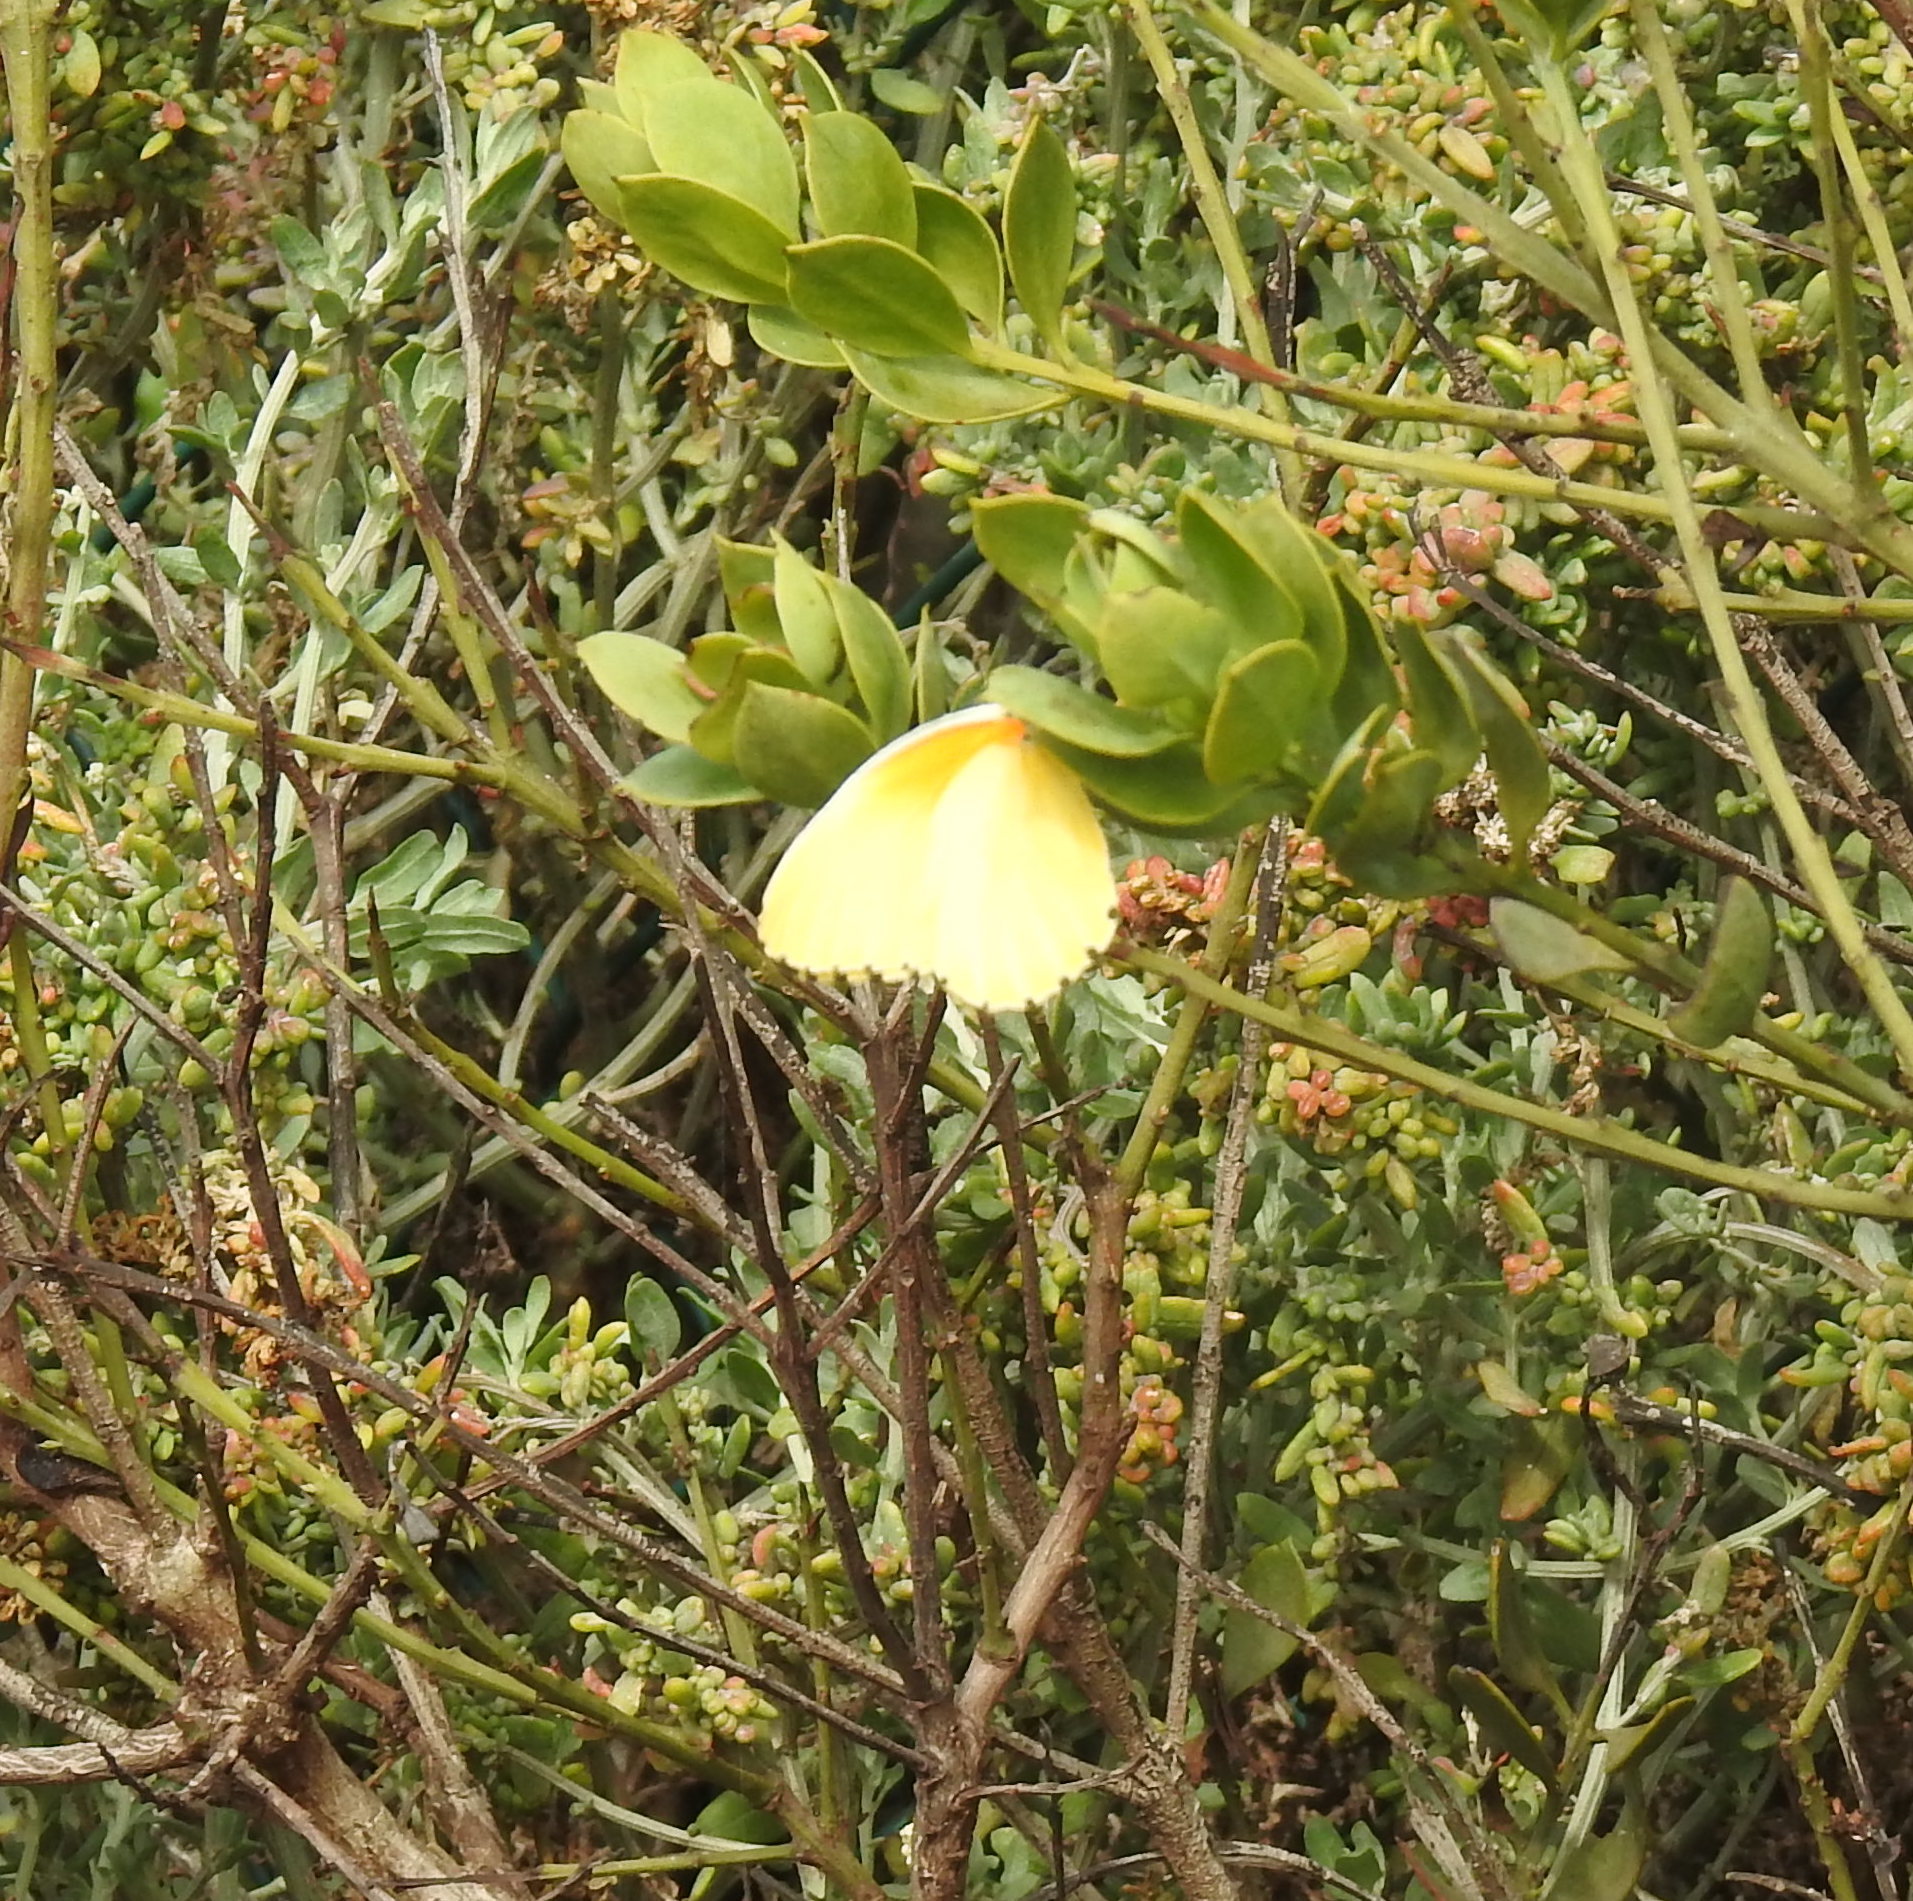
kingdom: Animalia
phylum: Arthropoda
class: Insecta
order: Lepidoptera
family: Pieridae
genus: Mylothris
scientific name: Mylothris agathina
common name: Eastern dotted border
